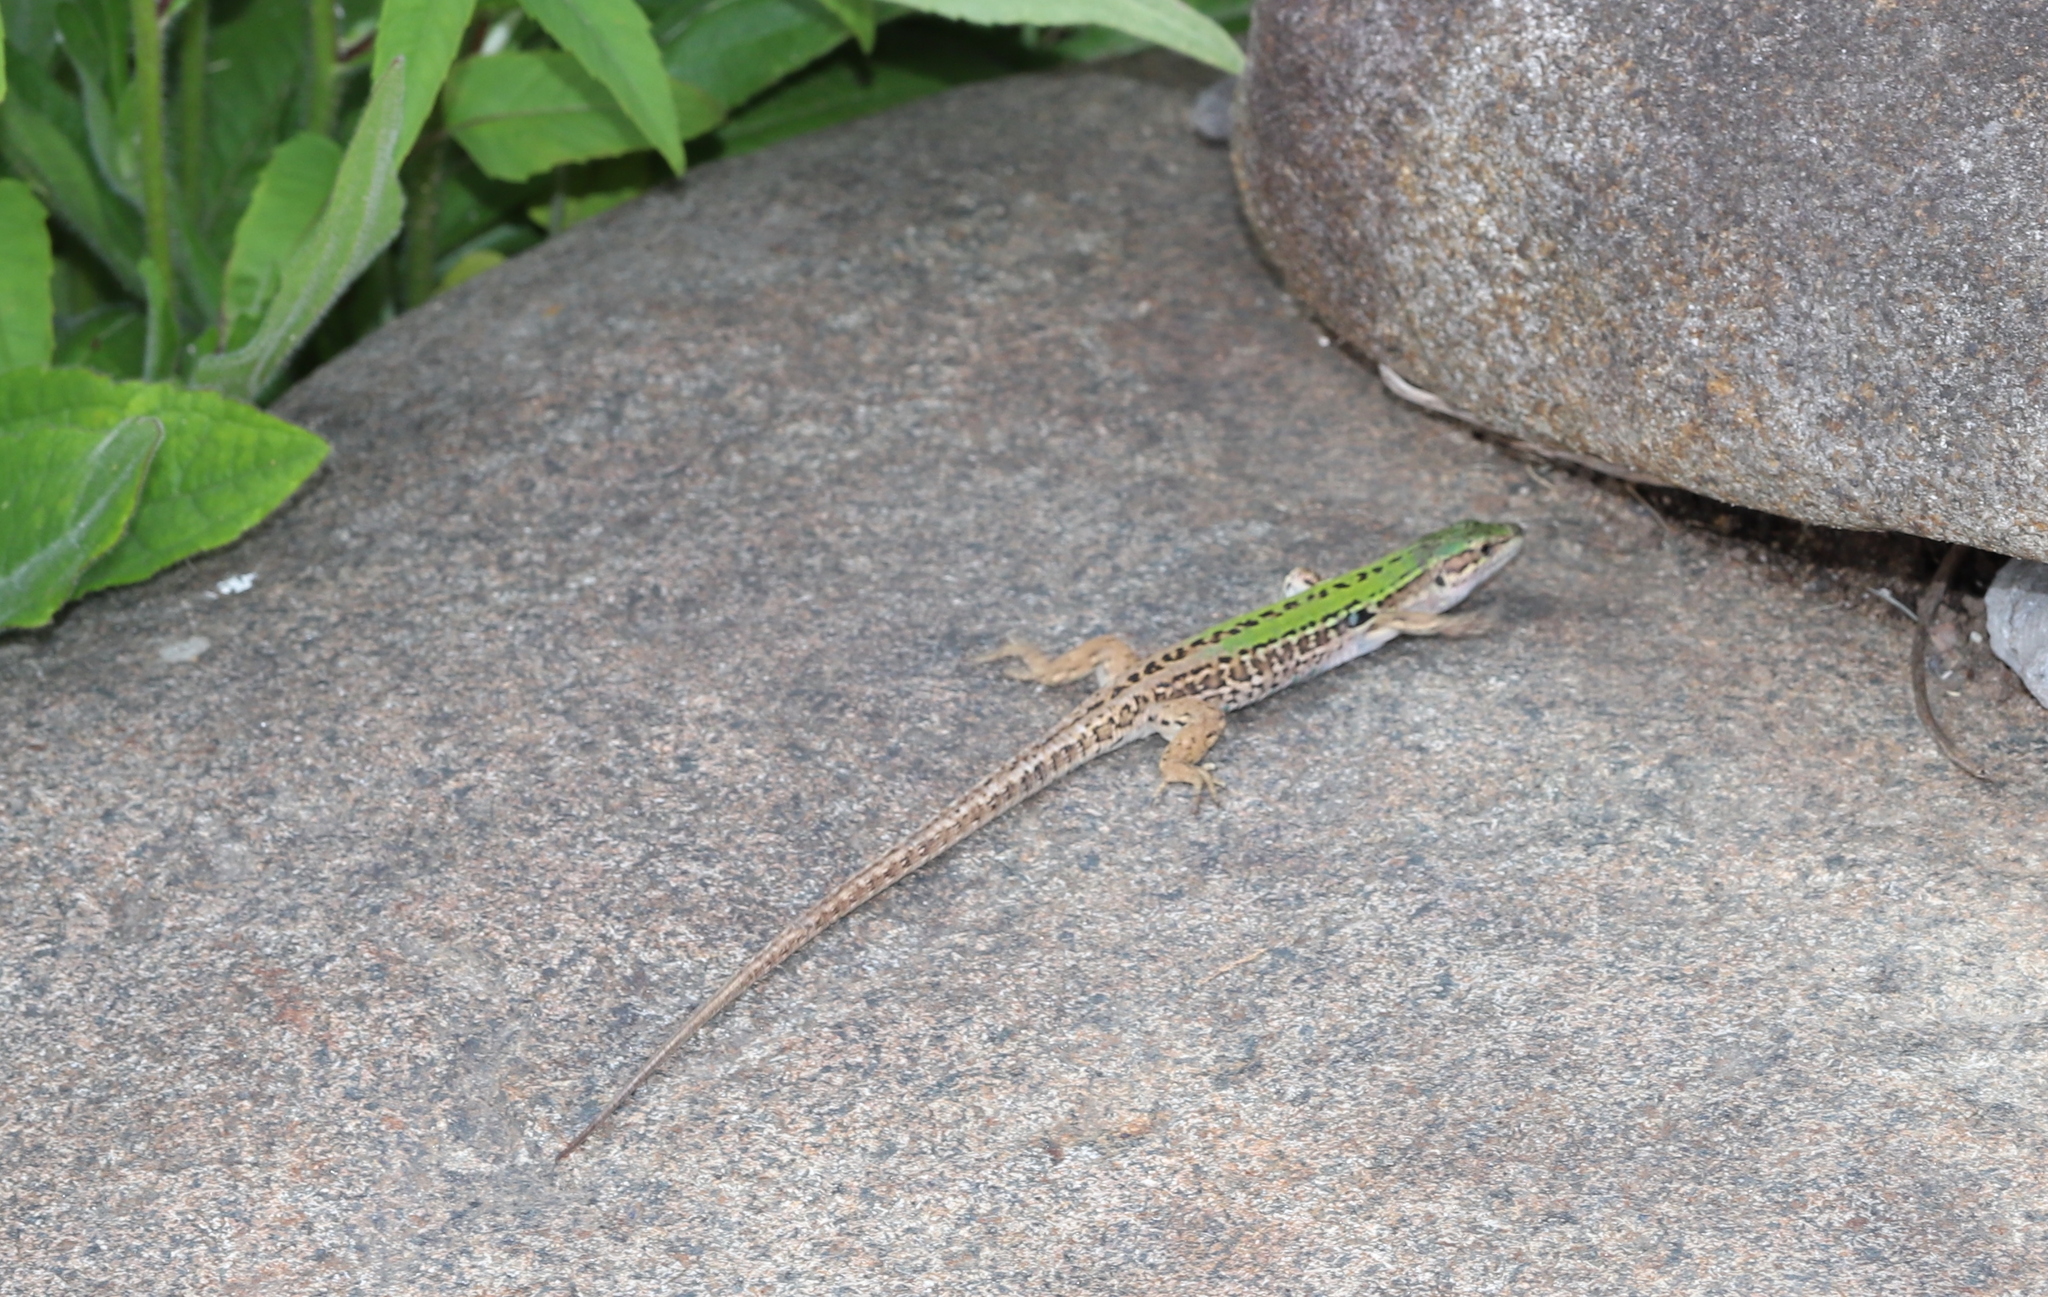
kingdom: Animalia
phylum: Chordata
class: Squamata
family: Lacertidae
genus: Podarcis
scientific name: Podarcis siculus
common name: Italian wall lizard
